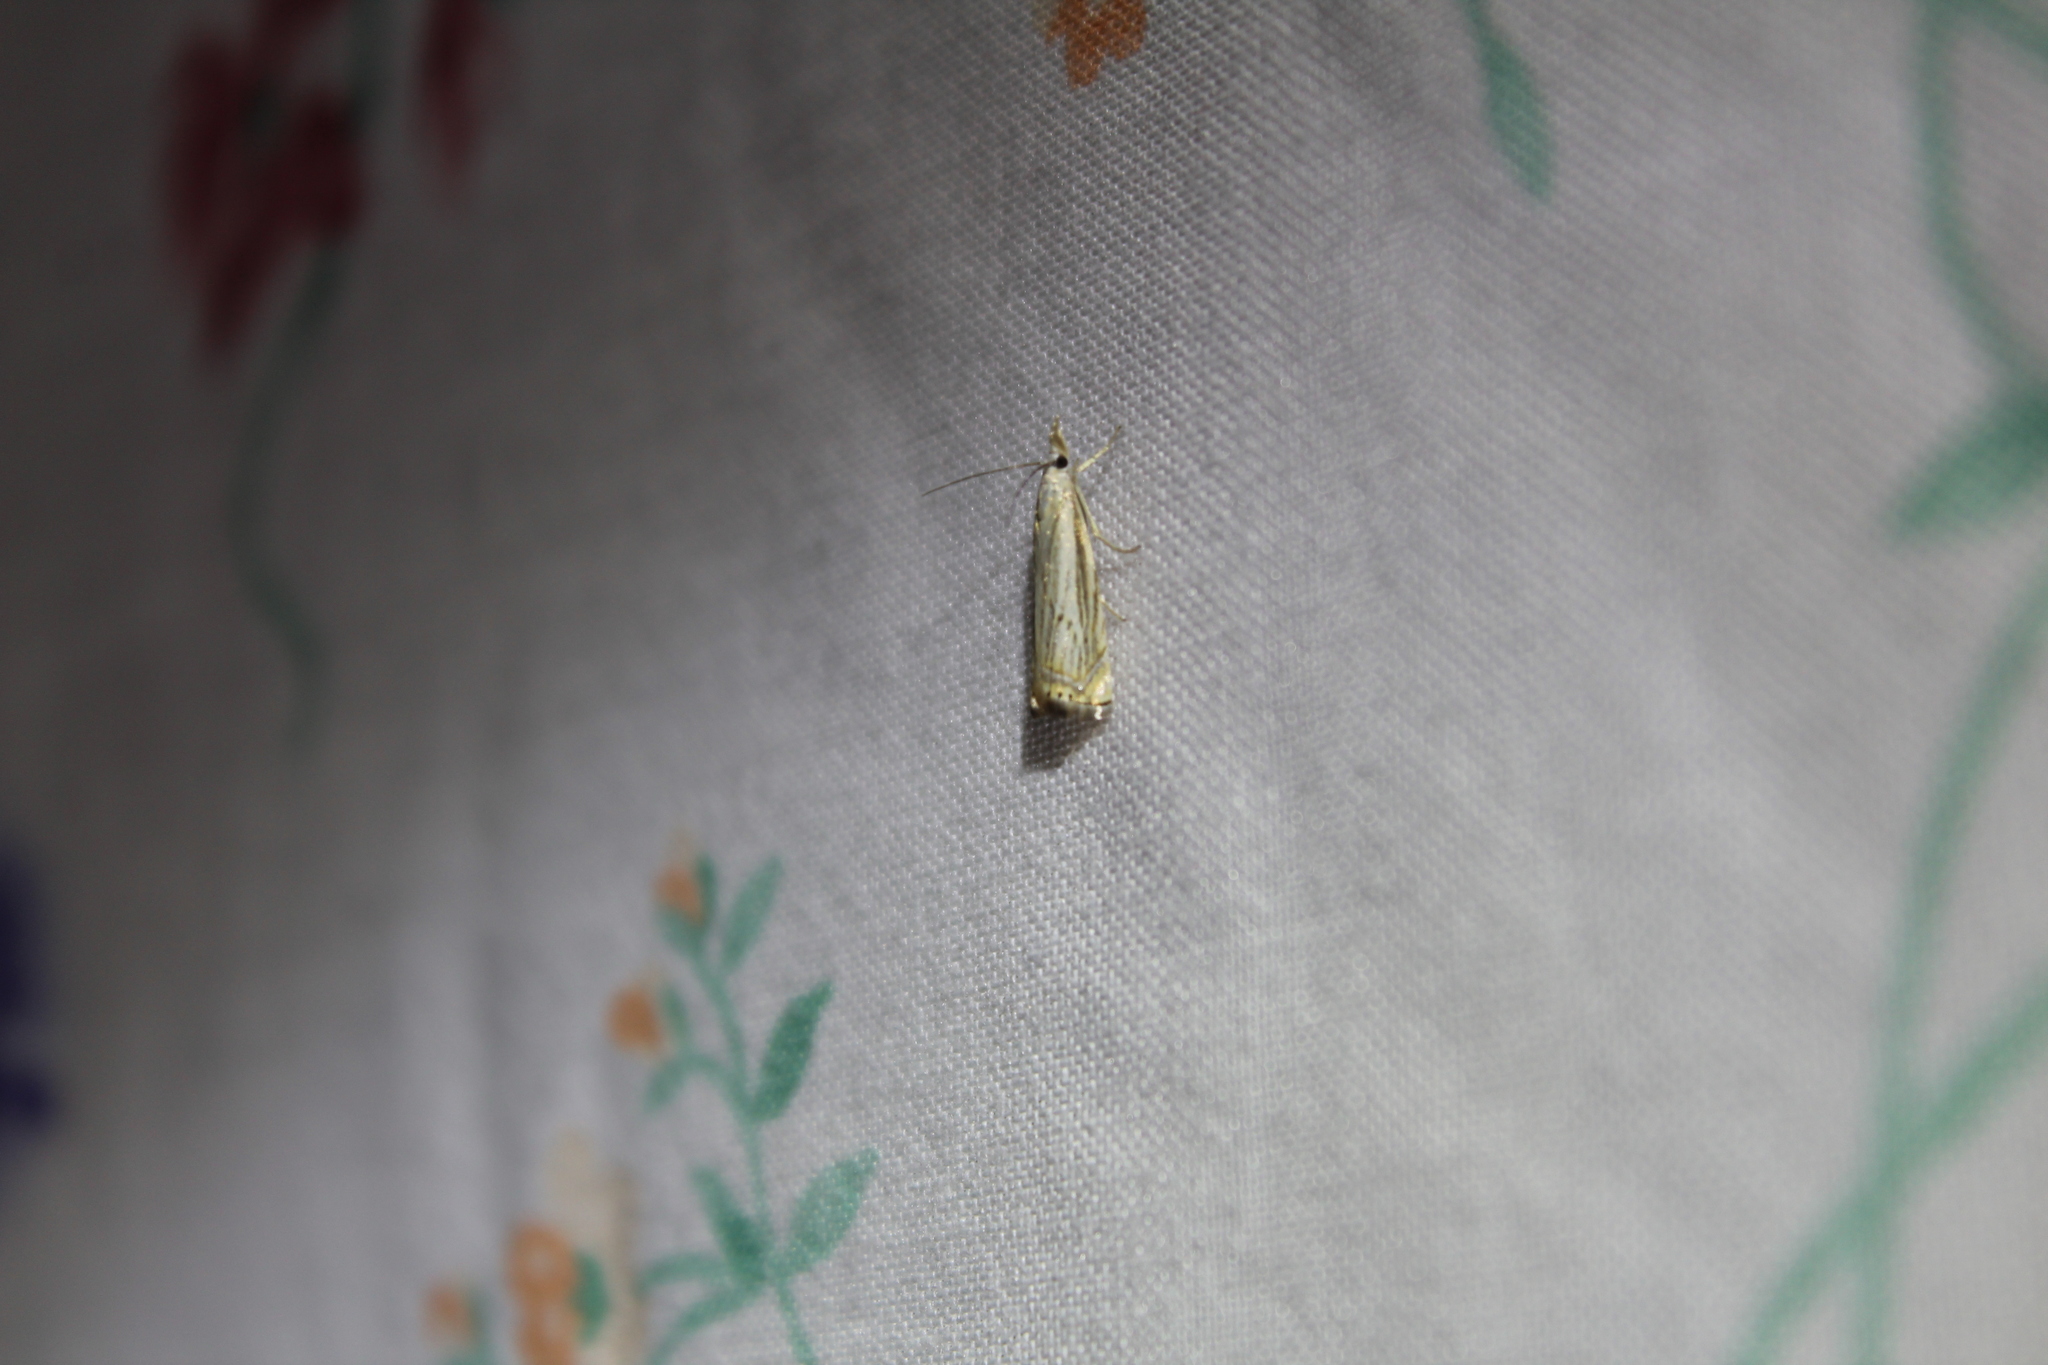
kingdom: Animalia
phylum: Arthropoda
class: Insecta
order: Lepidoptera
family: Crambidae
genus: Chrysoteuchia
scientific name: Chrysoteuchia topiarius
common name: Topiary grass-veneer
